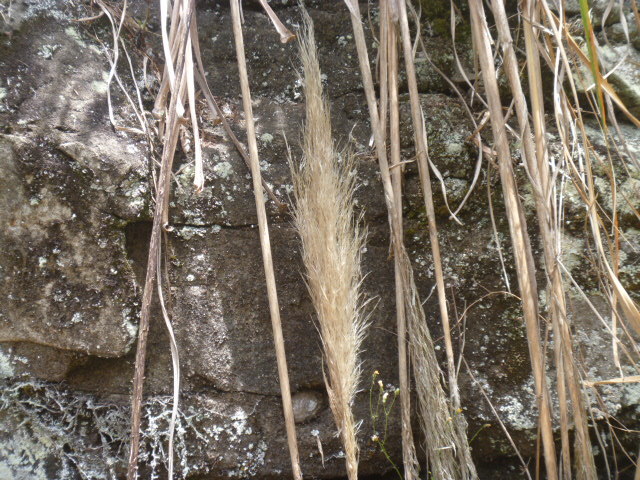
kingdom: Plantae
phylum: Tracheophyta
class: Liliopsida
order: Poales
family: Poaceae
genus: Cortaderia
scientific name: Cortaderia selloana
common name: Uruguayan pampas grass
